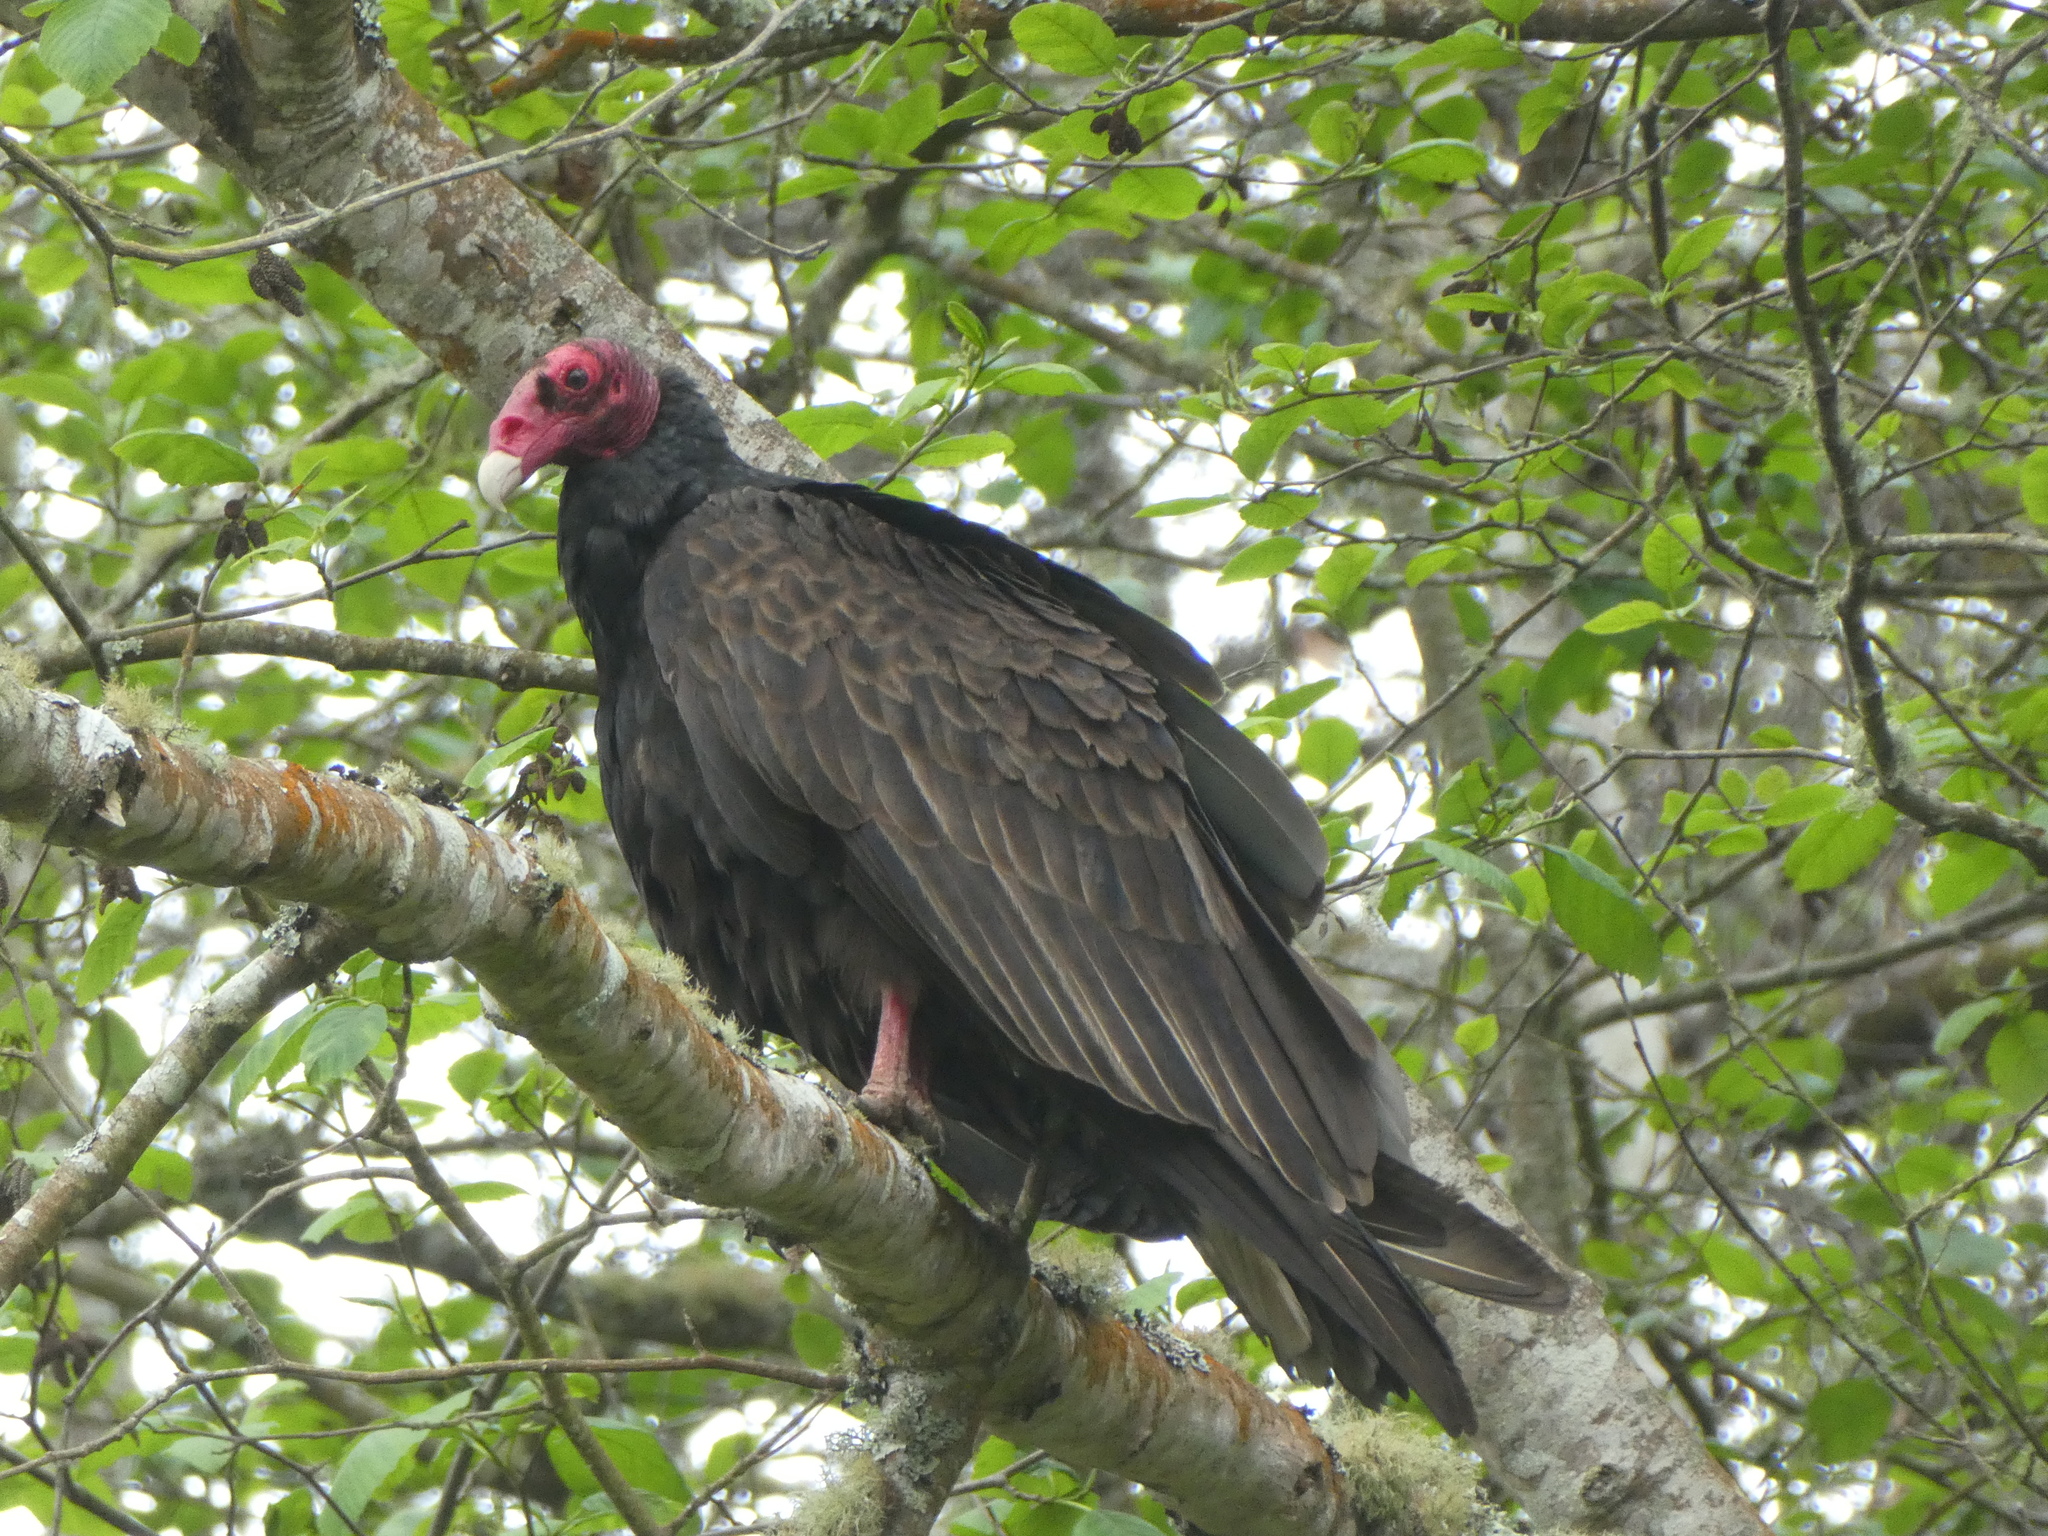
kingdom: Animalia
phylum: Chordata
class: Aves
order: Accipitriformes
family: Cathartidae
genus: Cathartes
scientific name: Cathartes aura
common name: Turkey vulture
